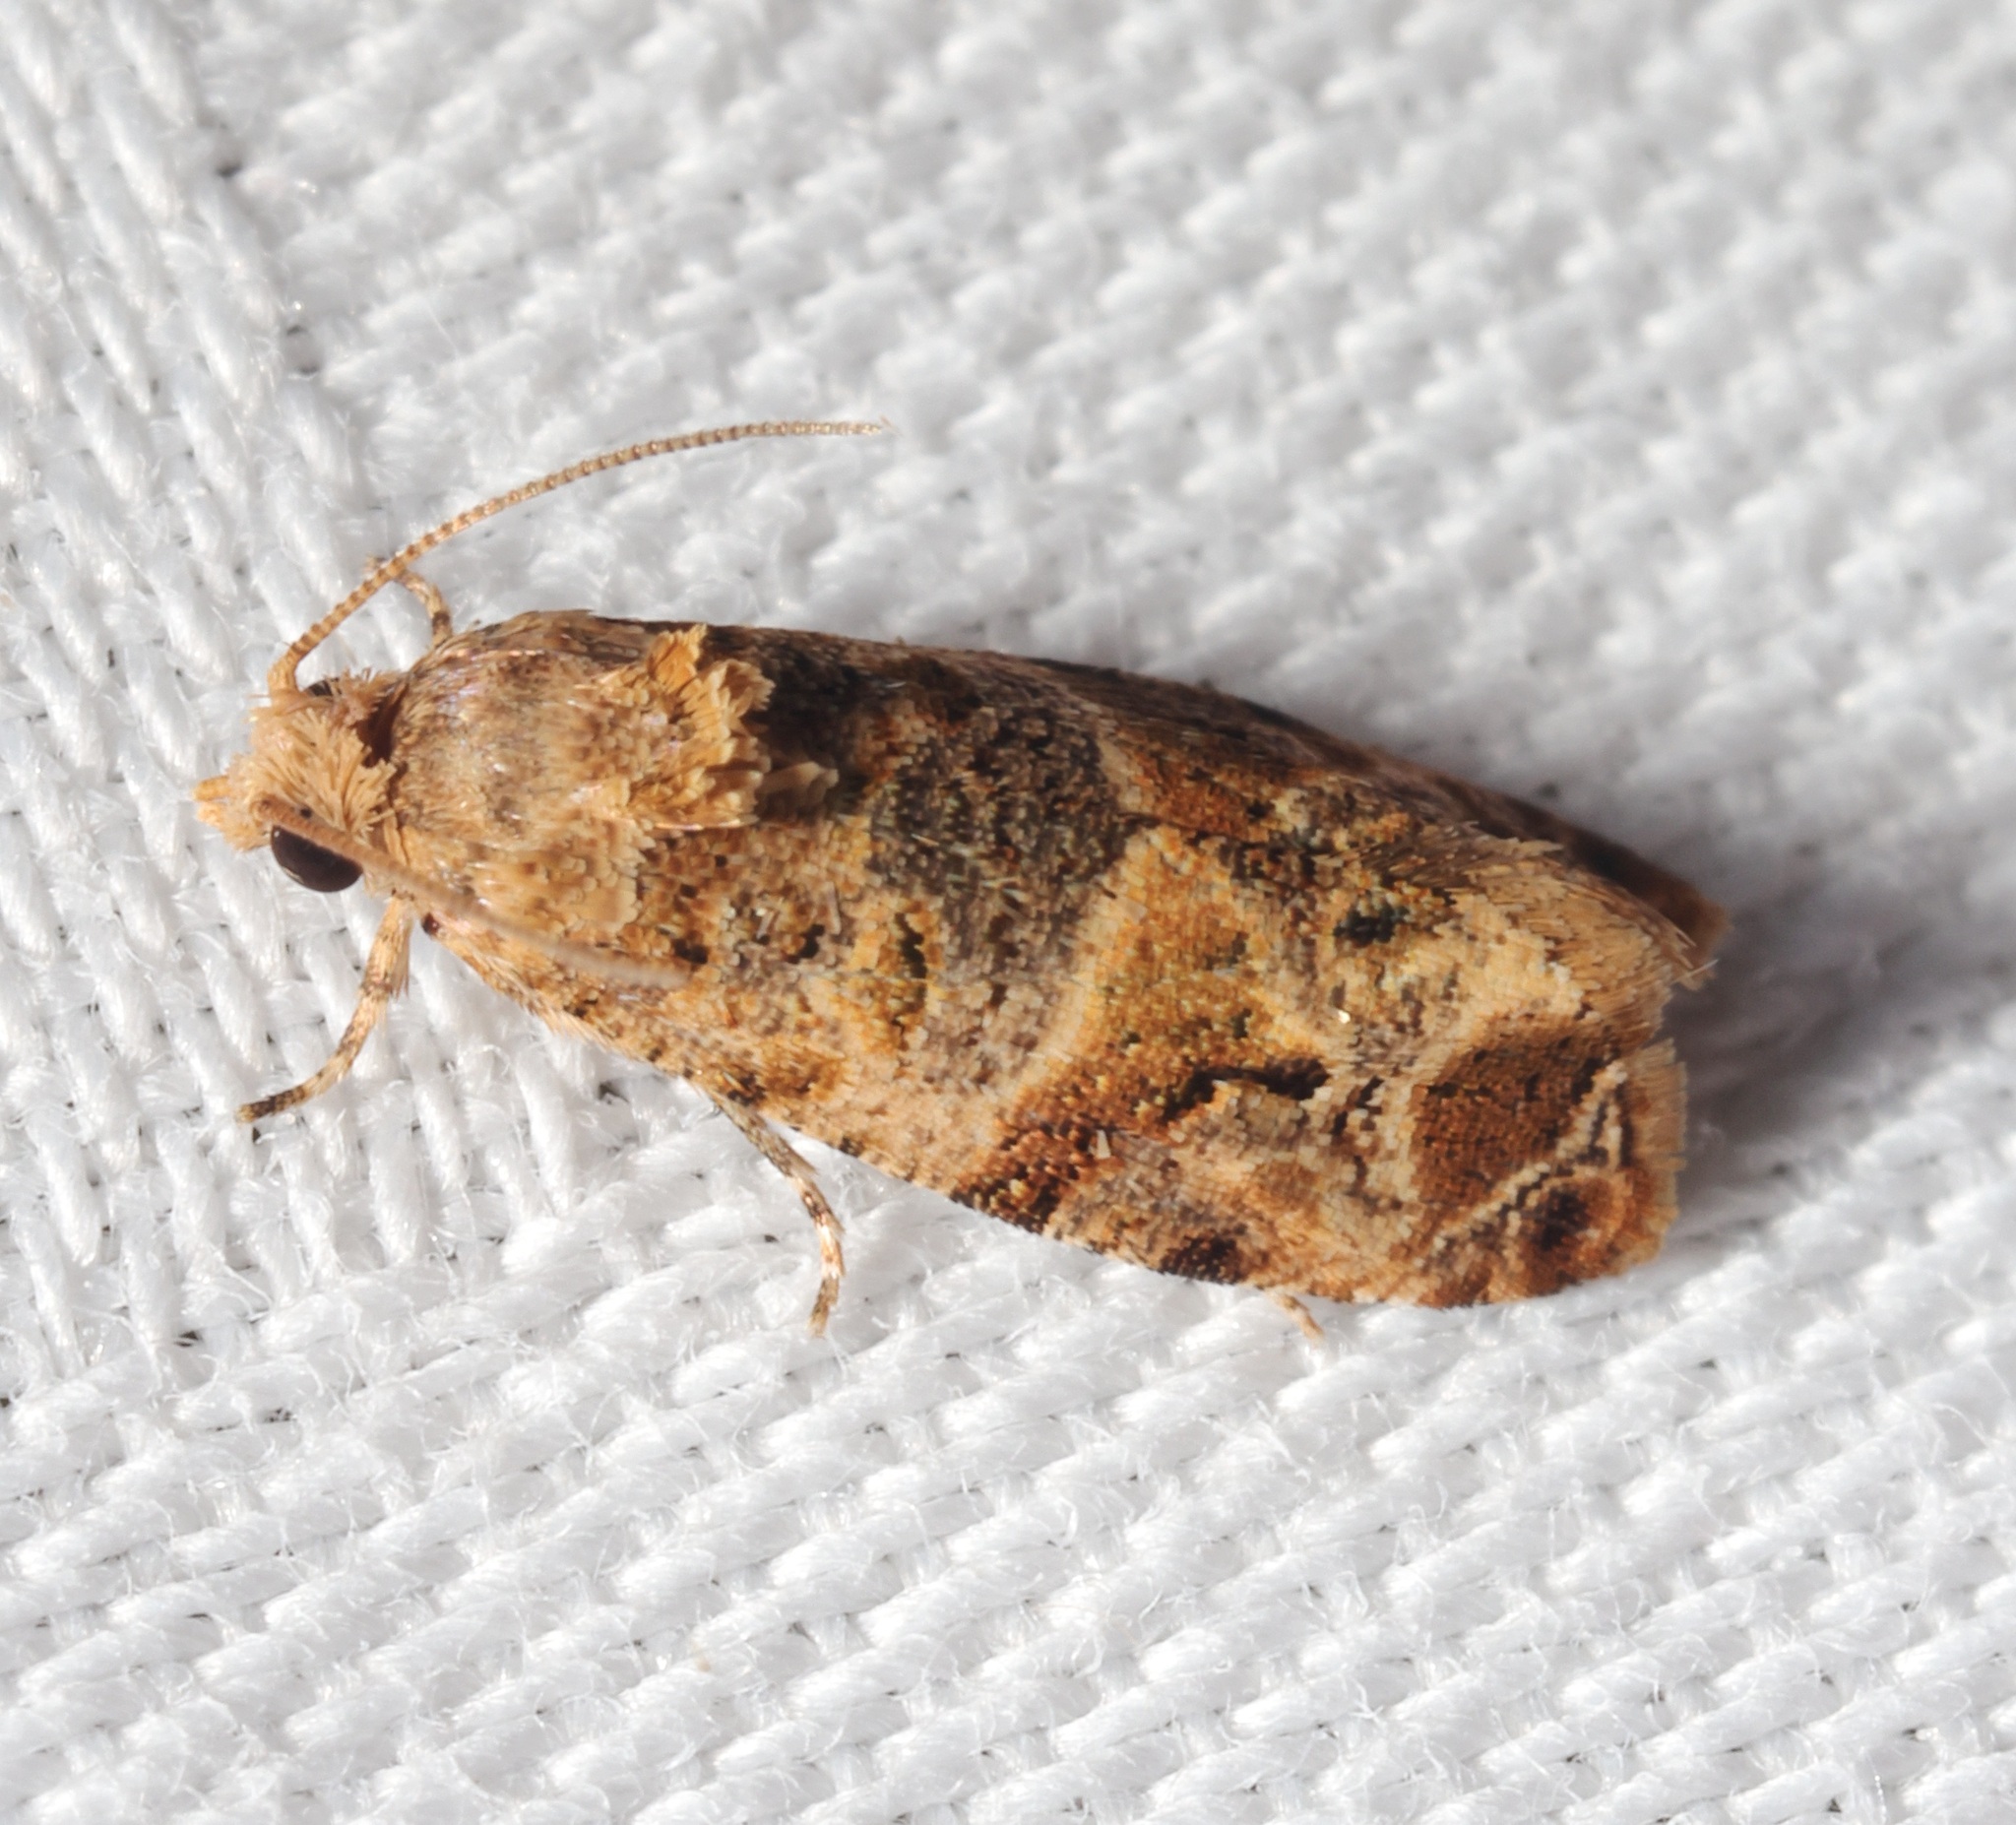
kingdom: Animalia
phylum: Arthropoda
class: Insecta
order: Lepidoptera
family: Tortricidae
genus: Lobesia
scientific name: Lobesia aeolopa
